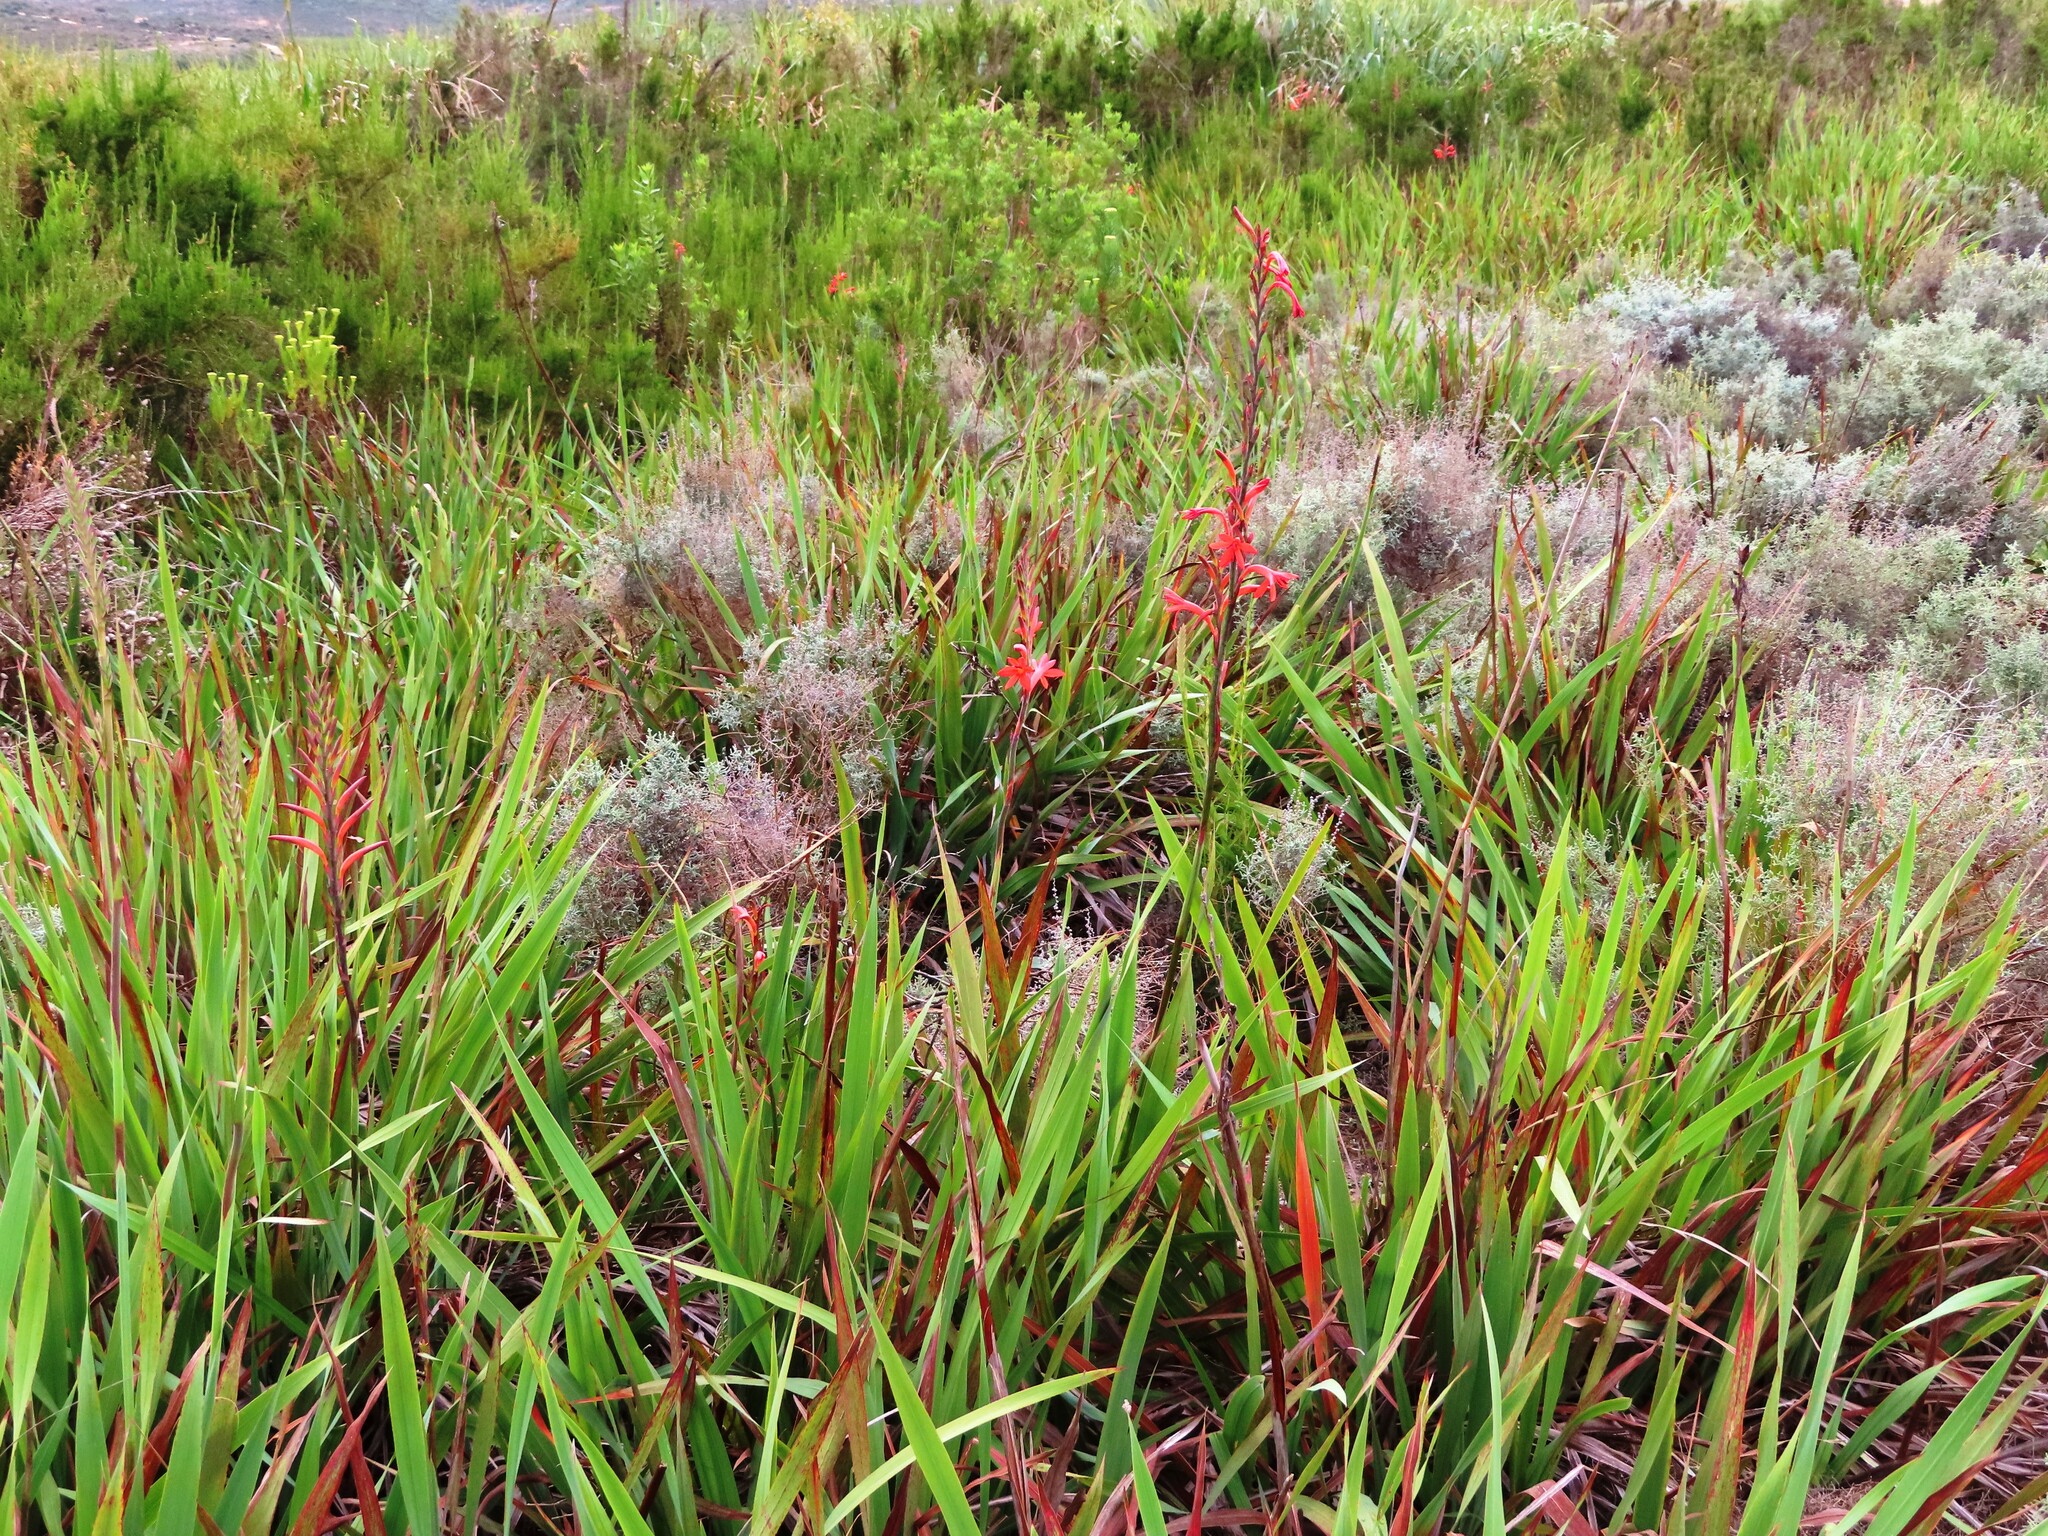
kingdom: Plantae
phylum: Tracheophyta
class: Liliopsida
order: Asparagales
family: Iridaceae
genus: Watsonia
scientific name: Watsonia angusta
